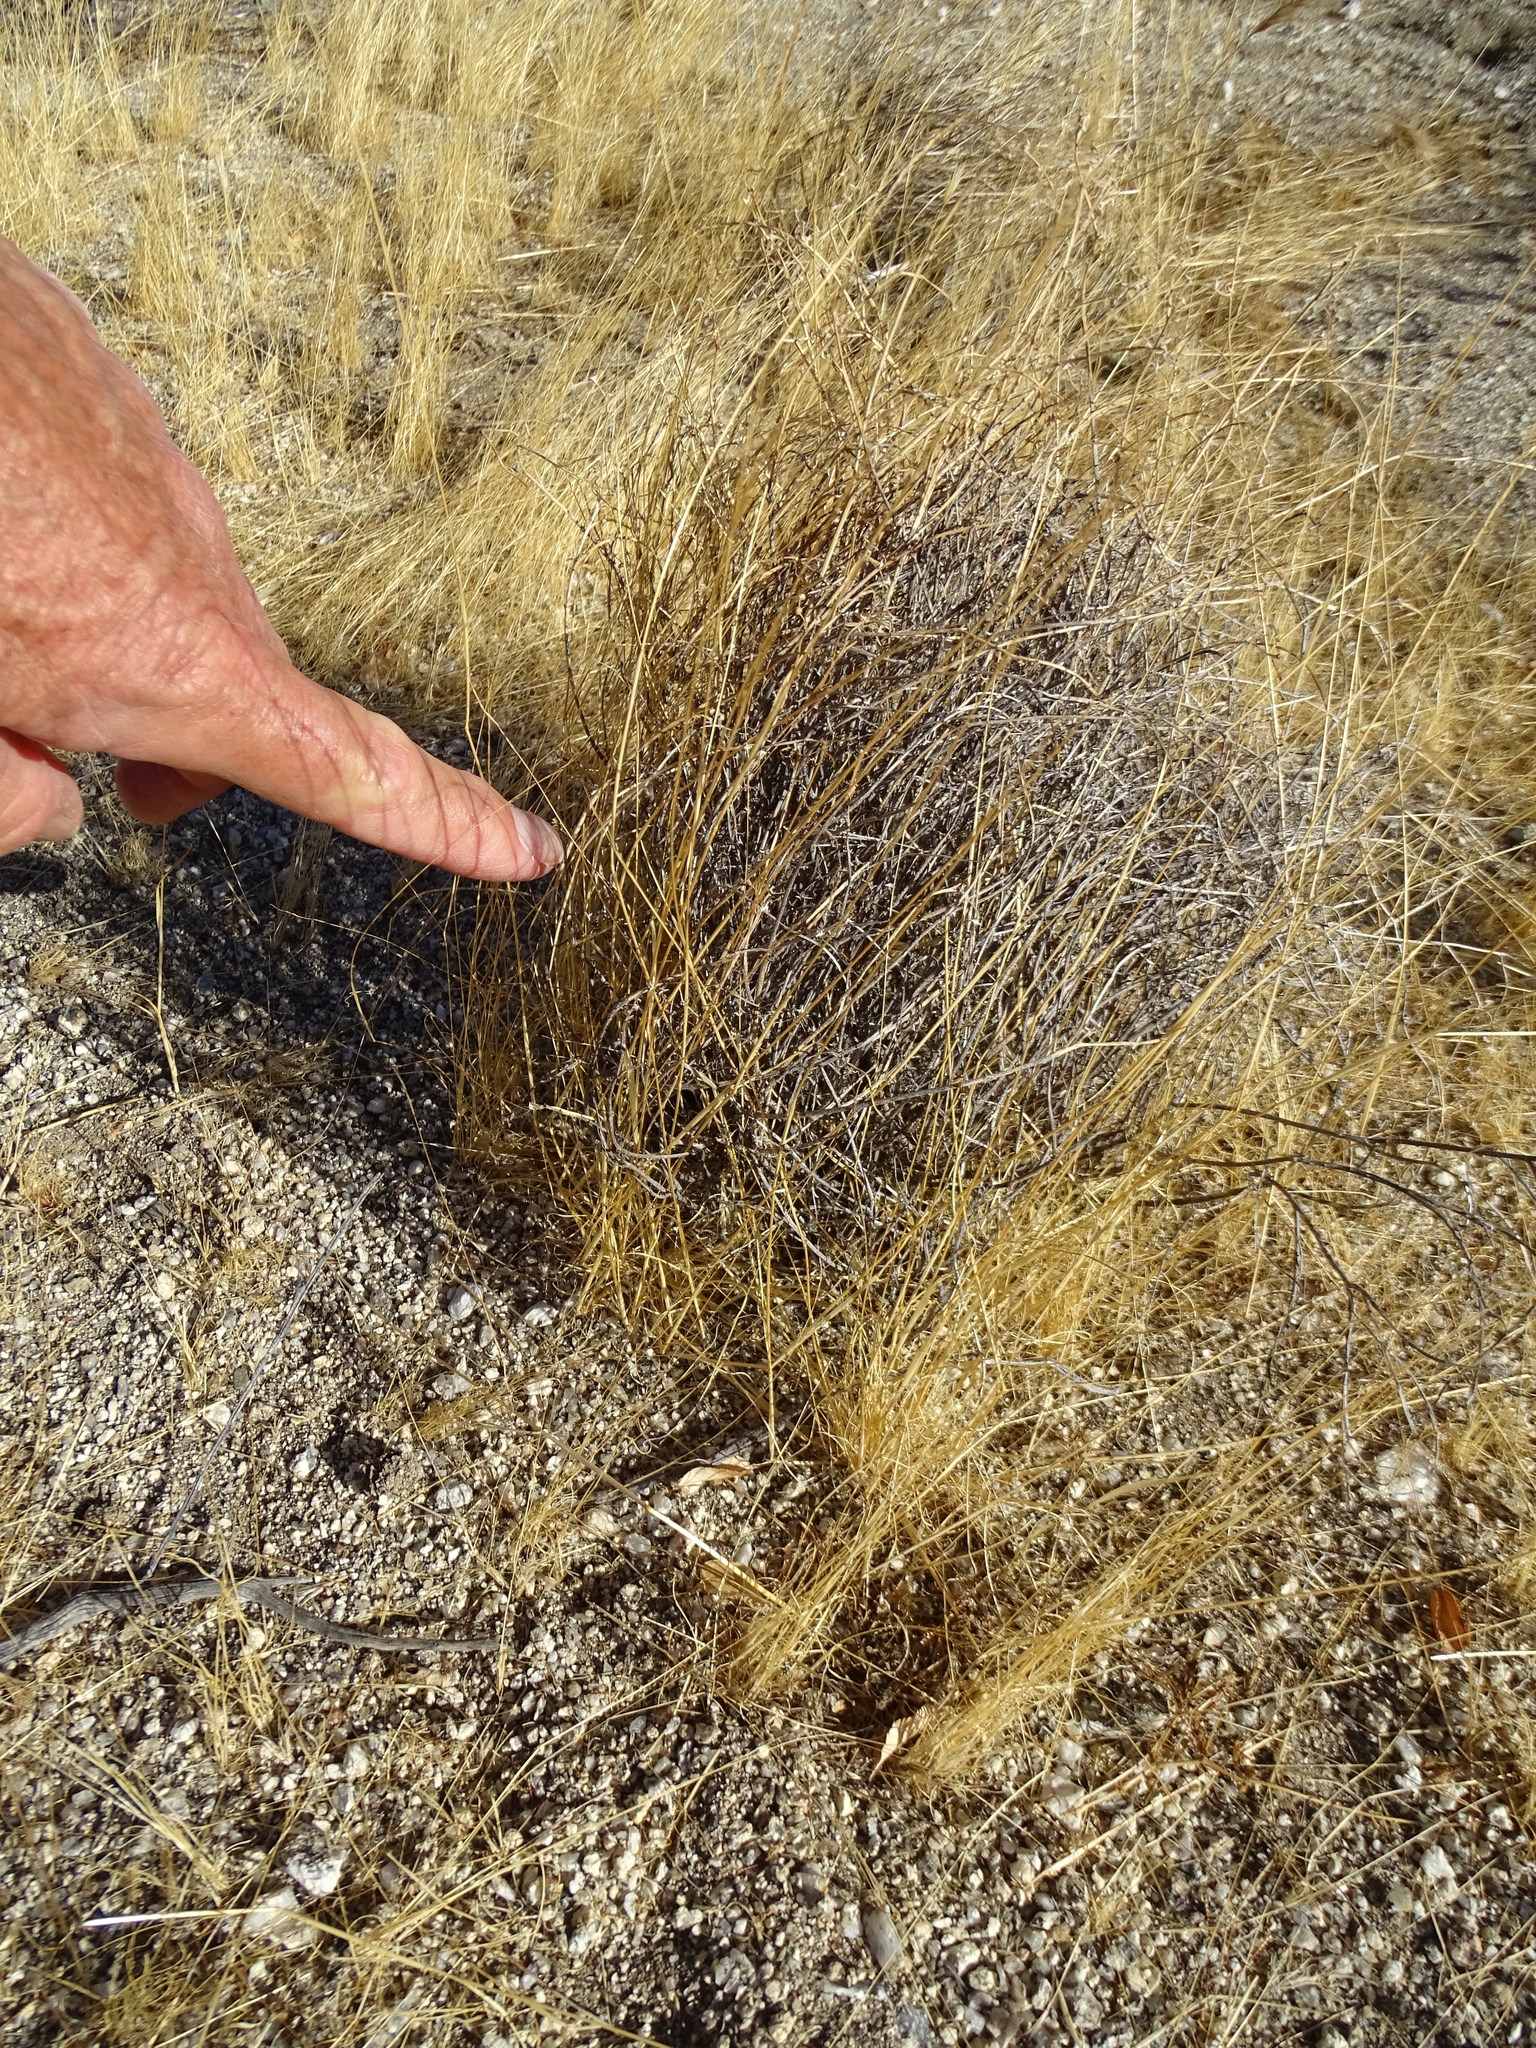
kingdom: Plantae
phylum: Tracheophyta
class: Magnoliopsida
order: Malpighiales
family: Euphorbiaceae
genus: Stillingia
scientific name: Stillingia linearifolia
